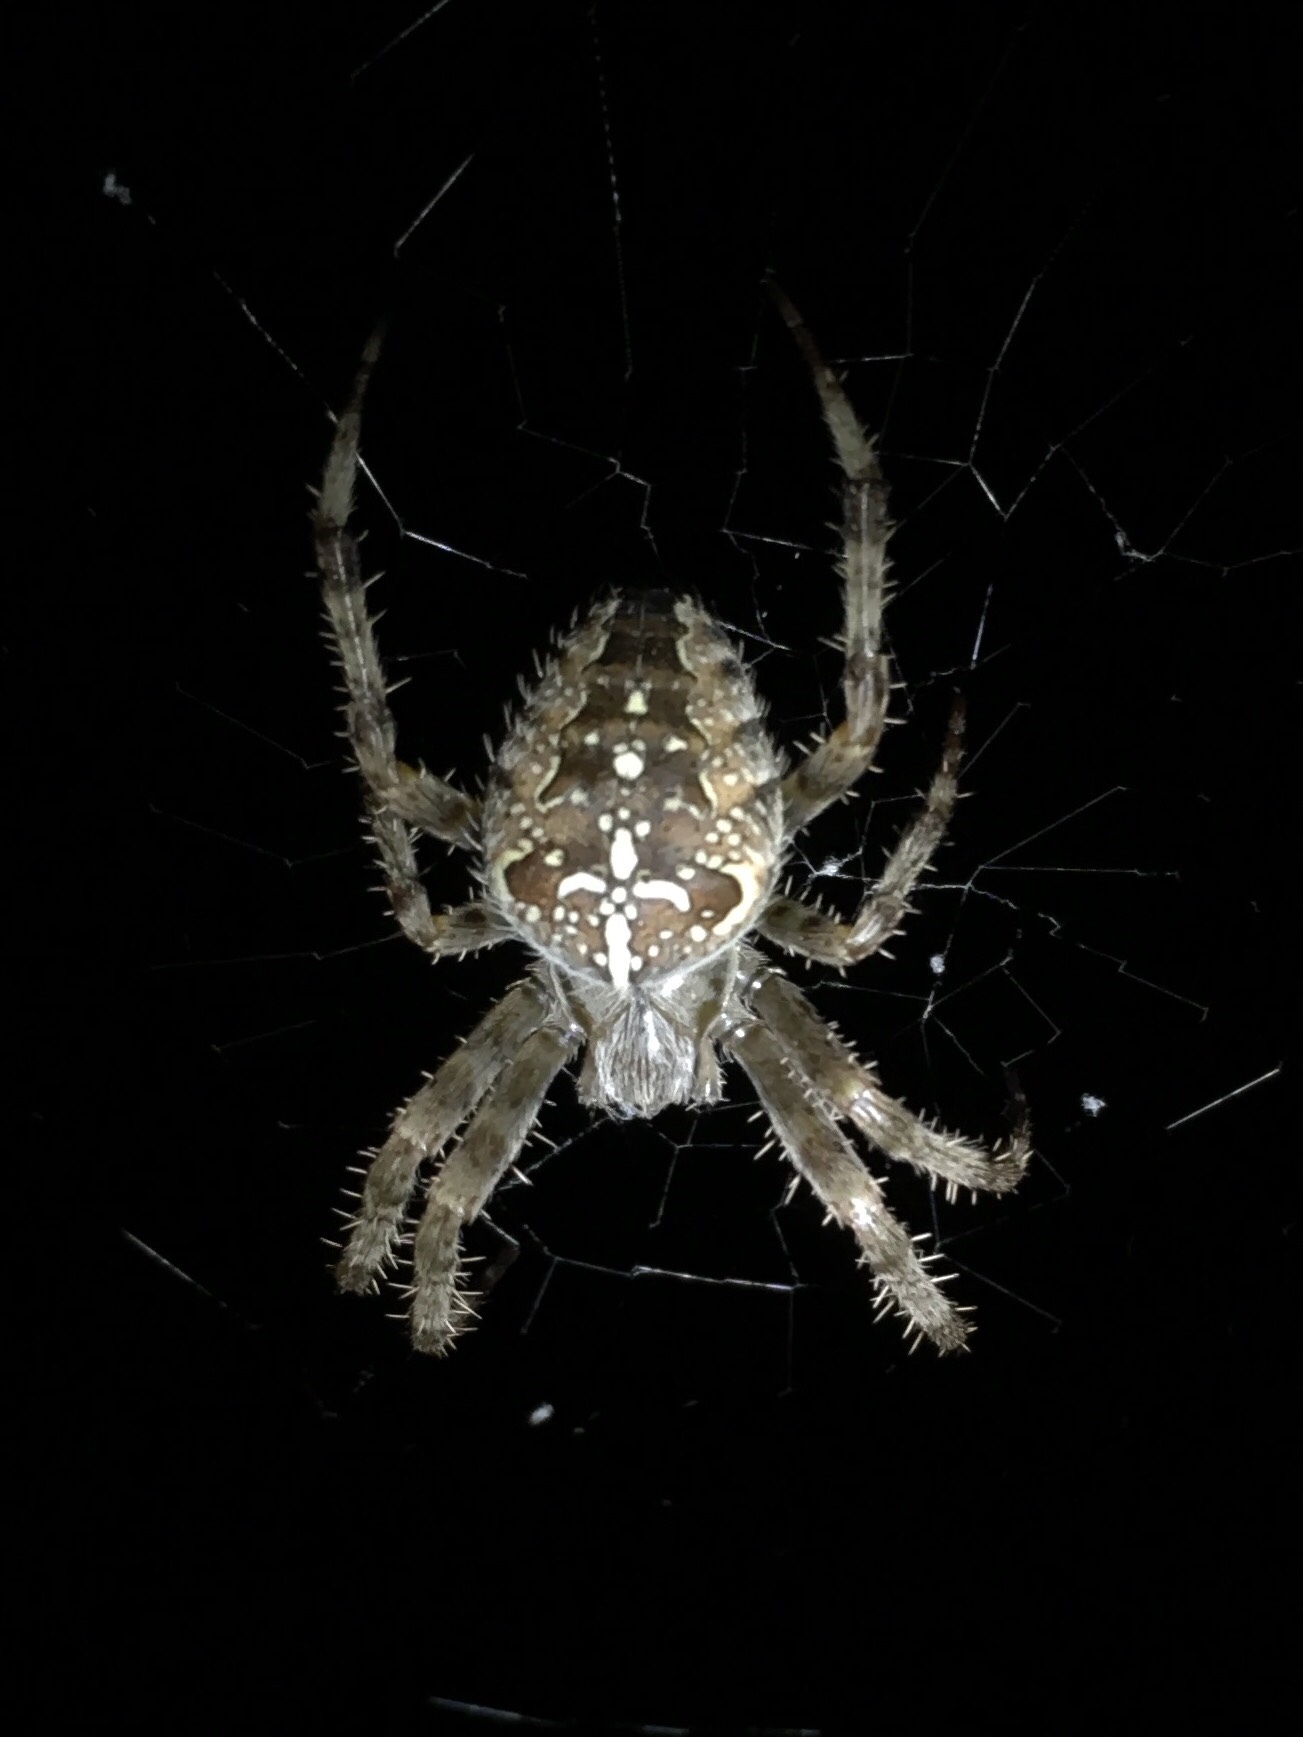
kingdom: Animalia
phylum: Arthropoda
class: Arachnida
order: Araneae
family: Araneidae
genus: Araneus
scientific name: Araneus diadematus
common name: Cross orbweaver
